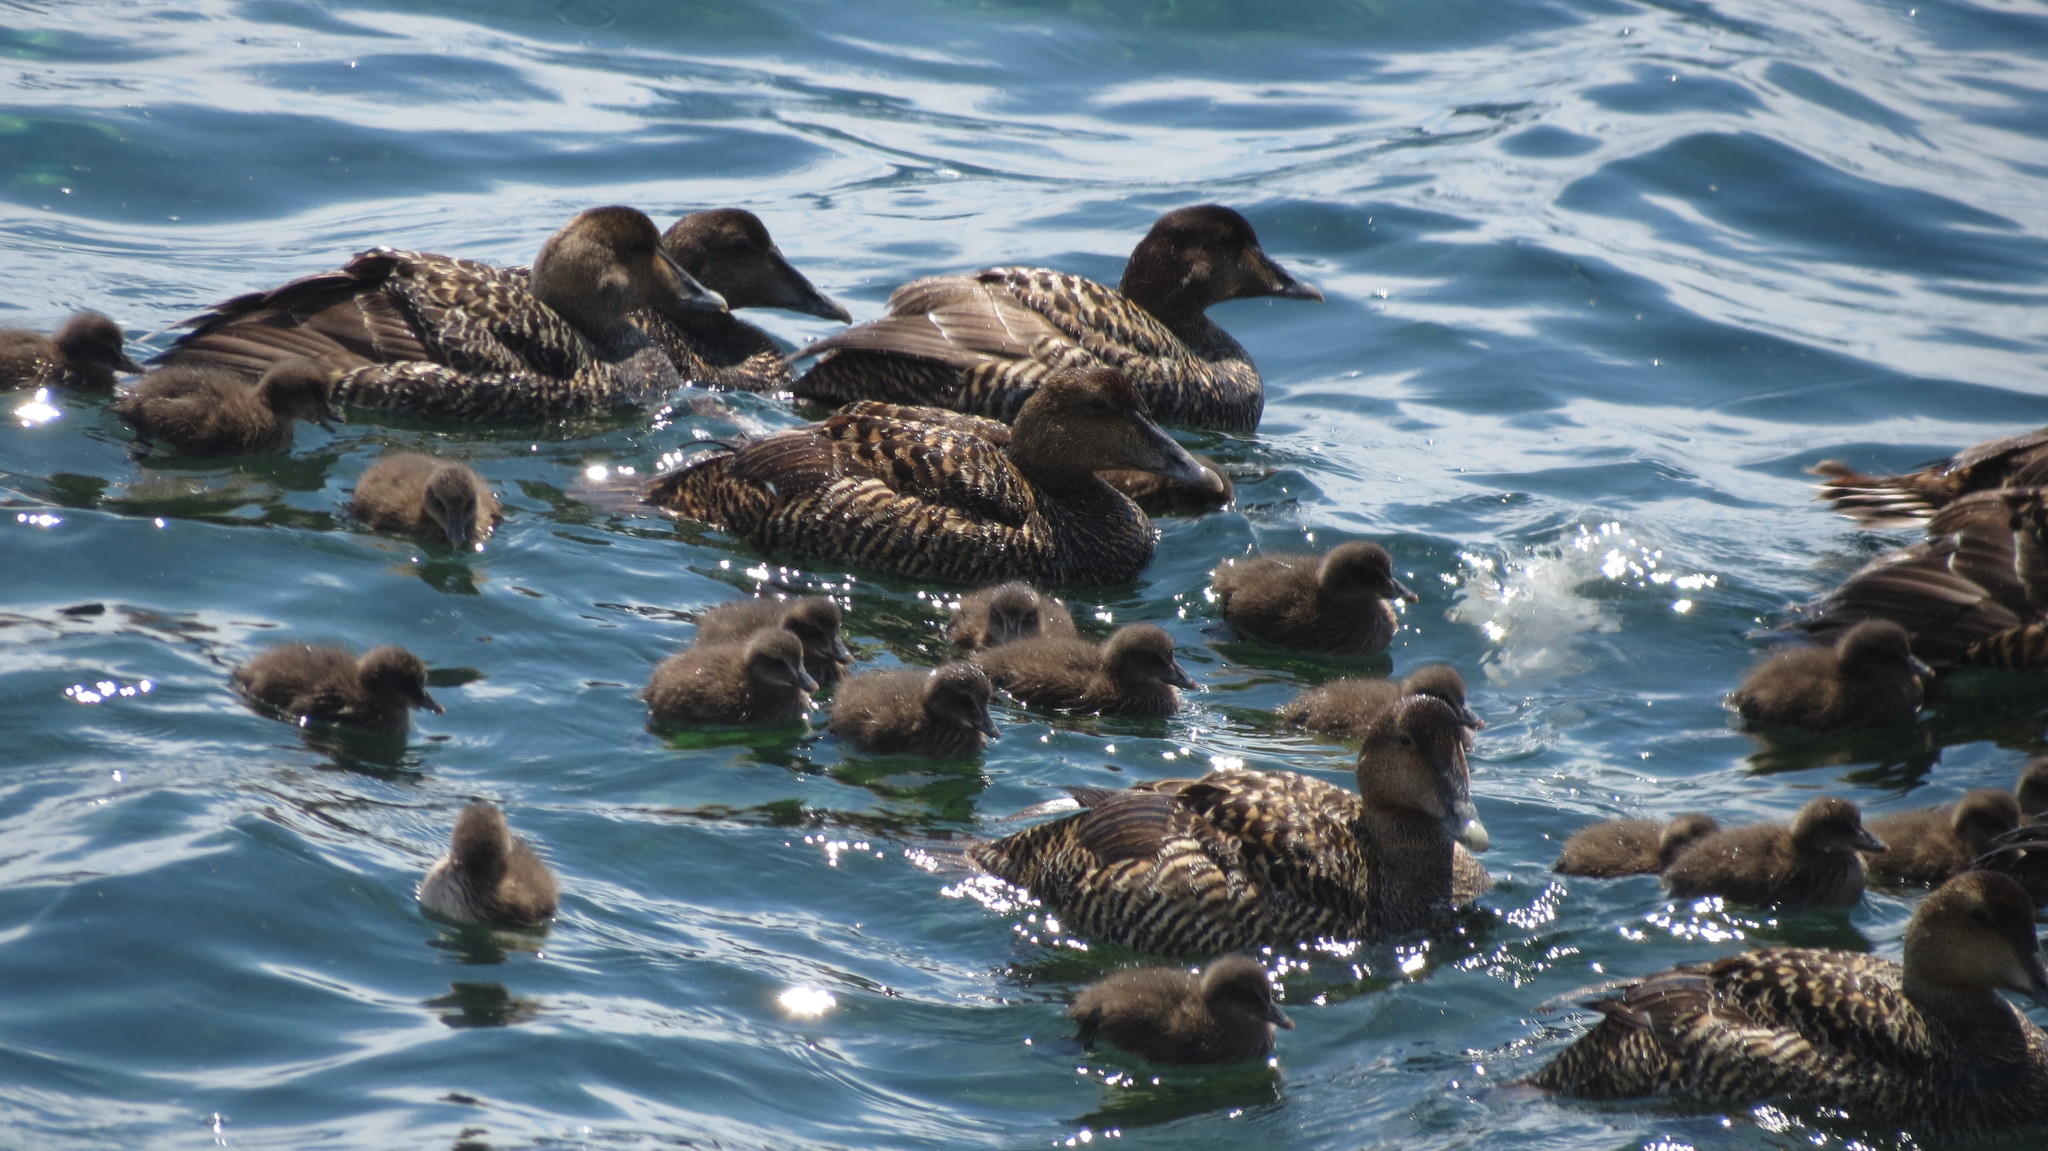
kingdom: Animalia
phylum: Chordata
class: Aves
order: Anseriformes
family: Anatidae
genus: Somateria
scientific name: Somateria mollissima
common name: Common eider
